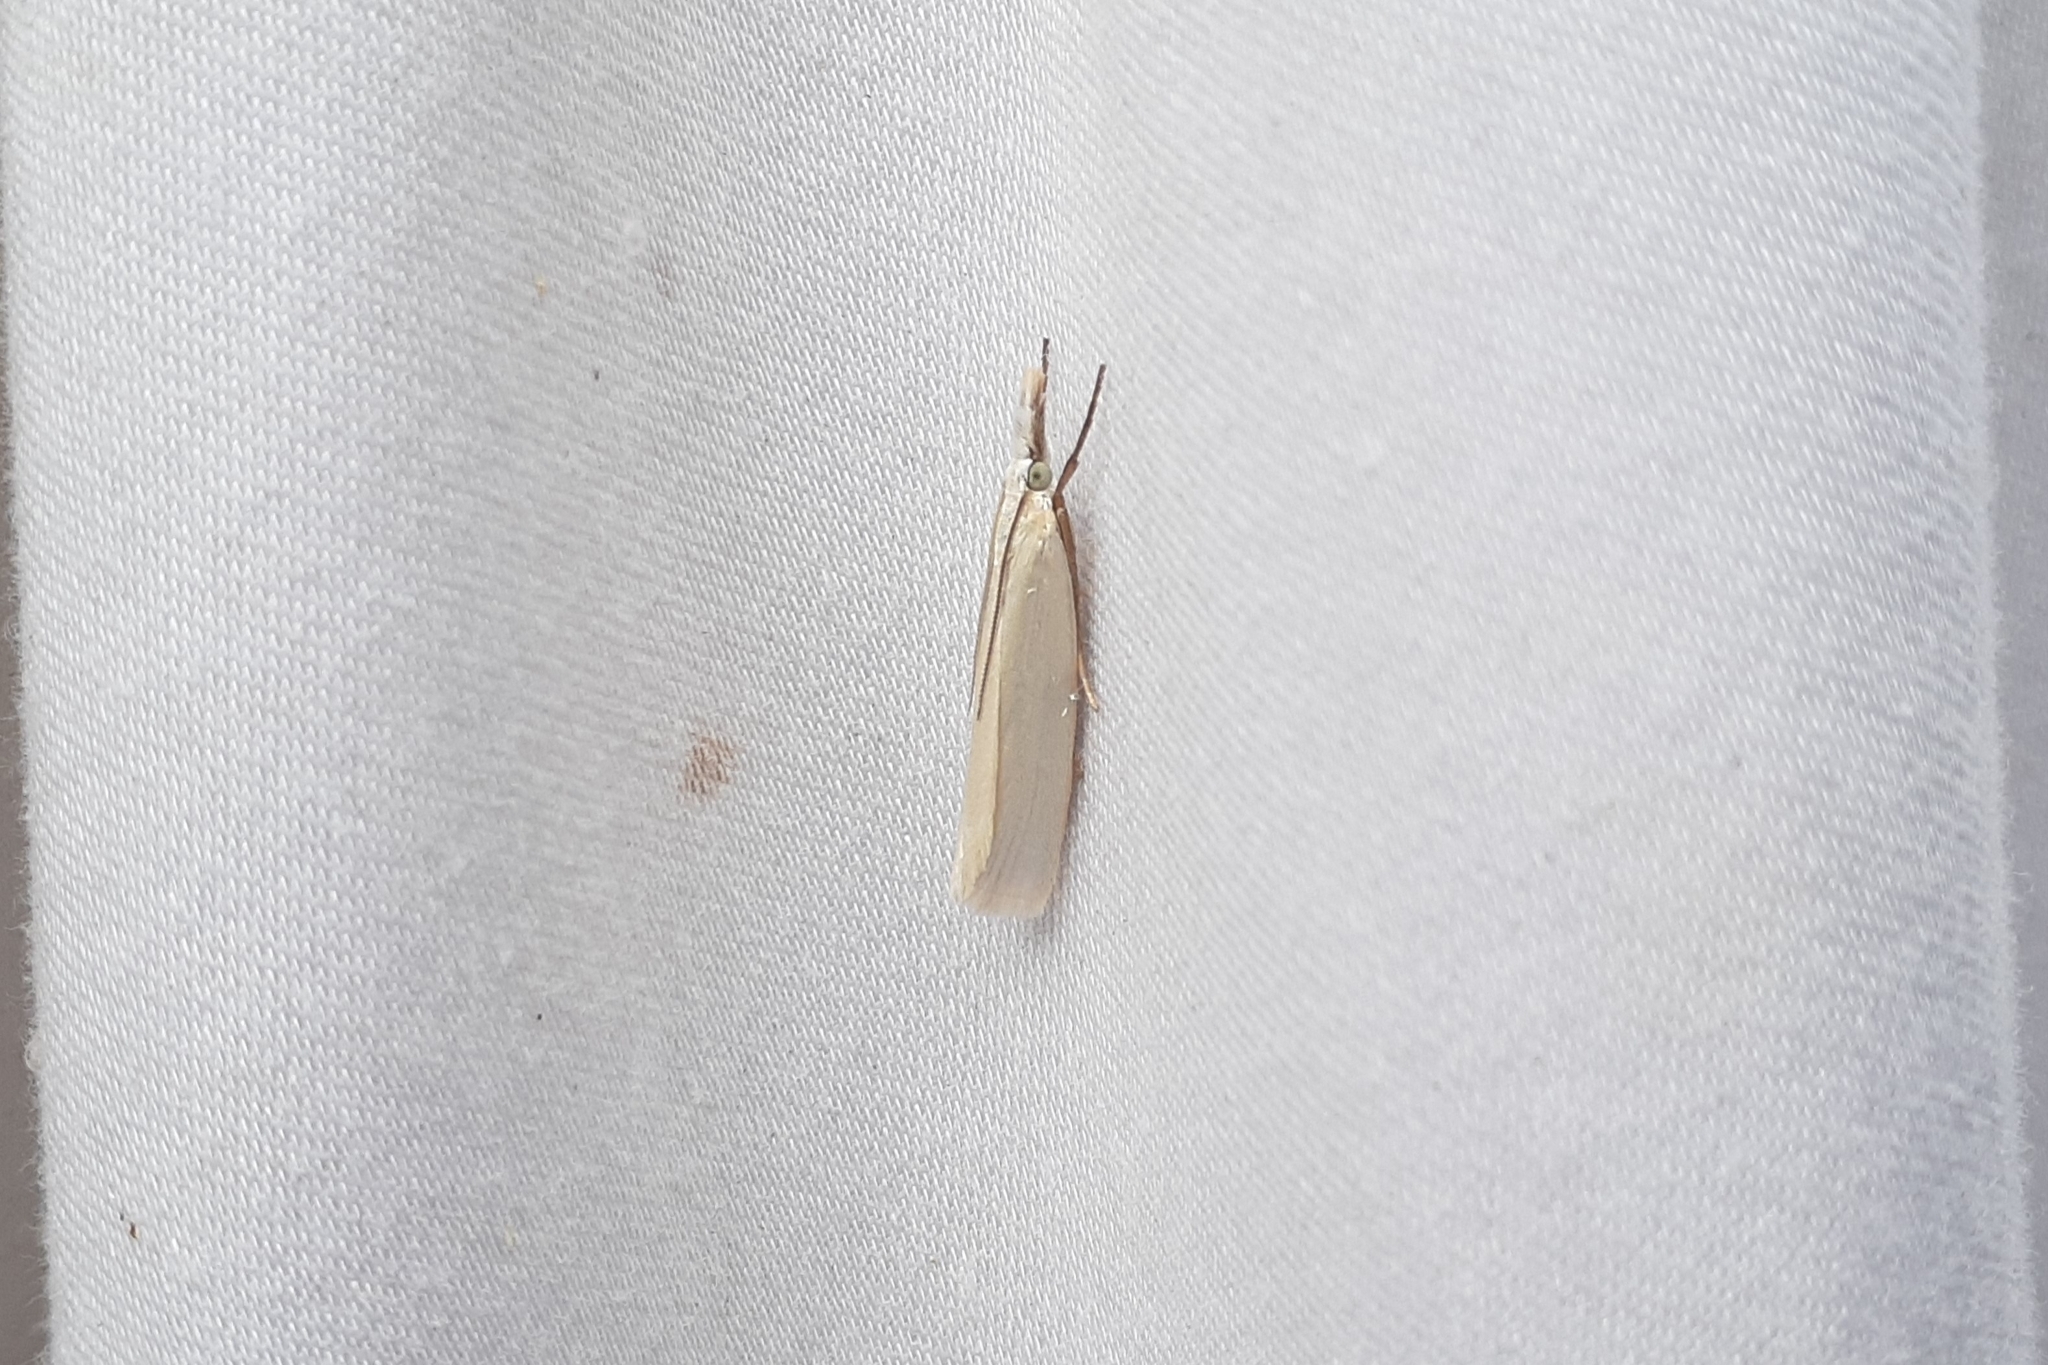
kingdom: Animalia
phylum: Arthropoda
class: Insecta
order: Lepidoptera
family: Crambidae
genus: Crambus
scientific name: Crambus perlellus
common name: Yellow satin veneer
